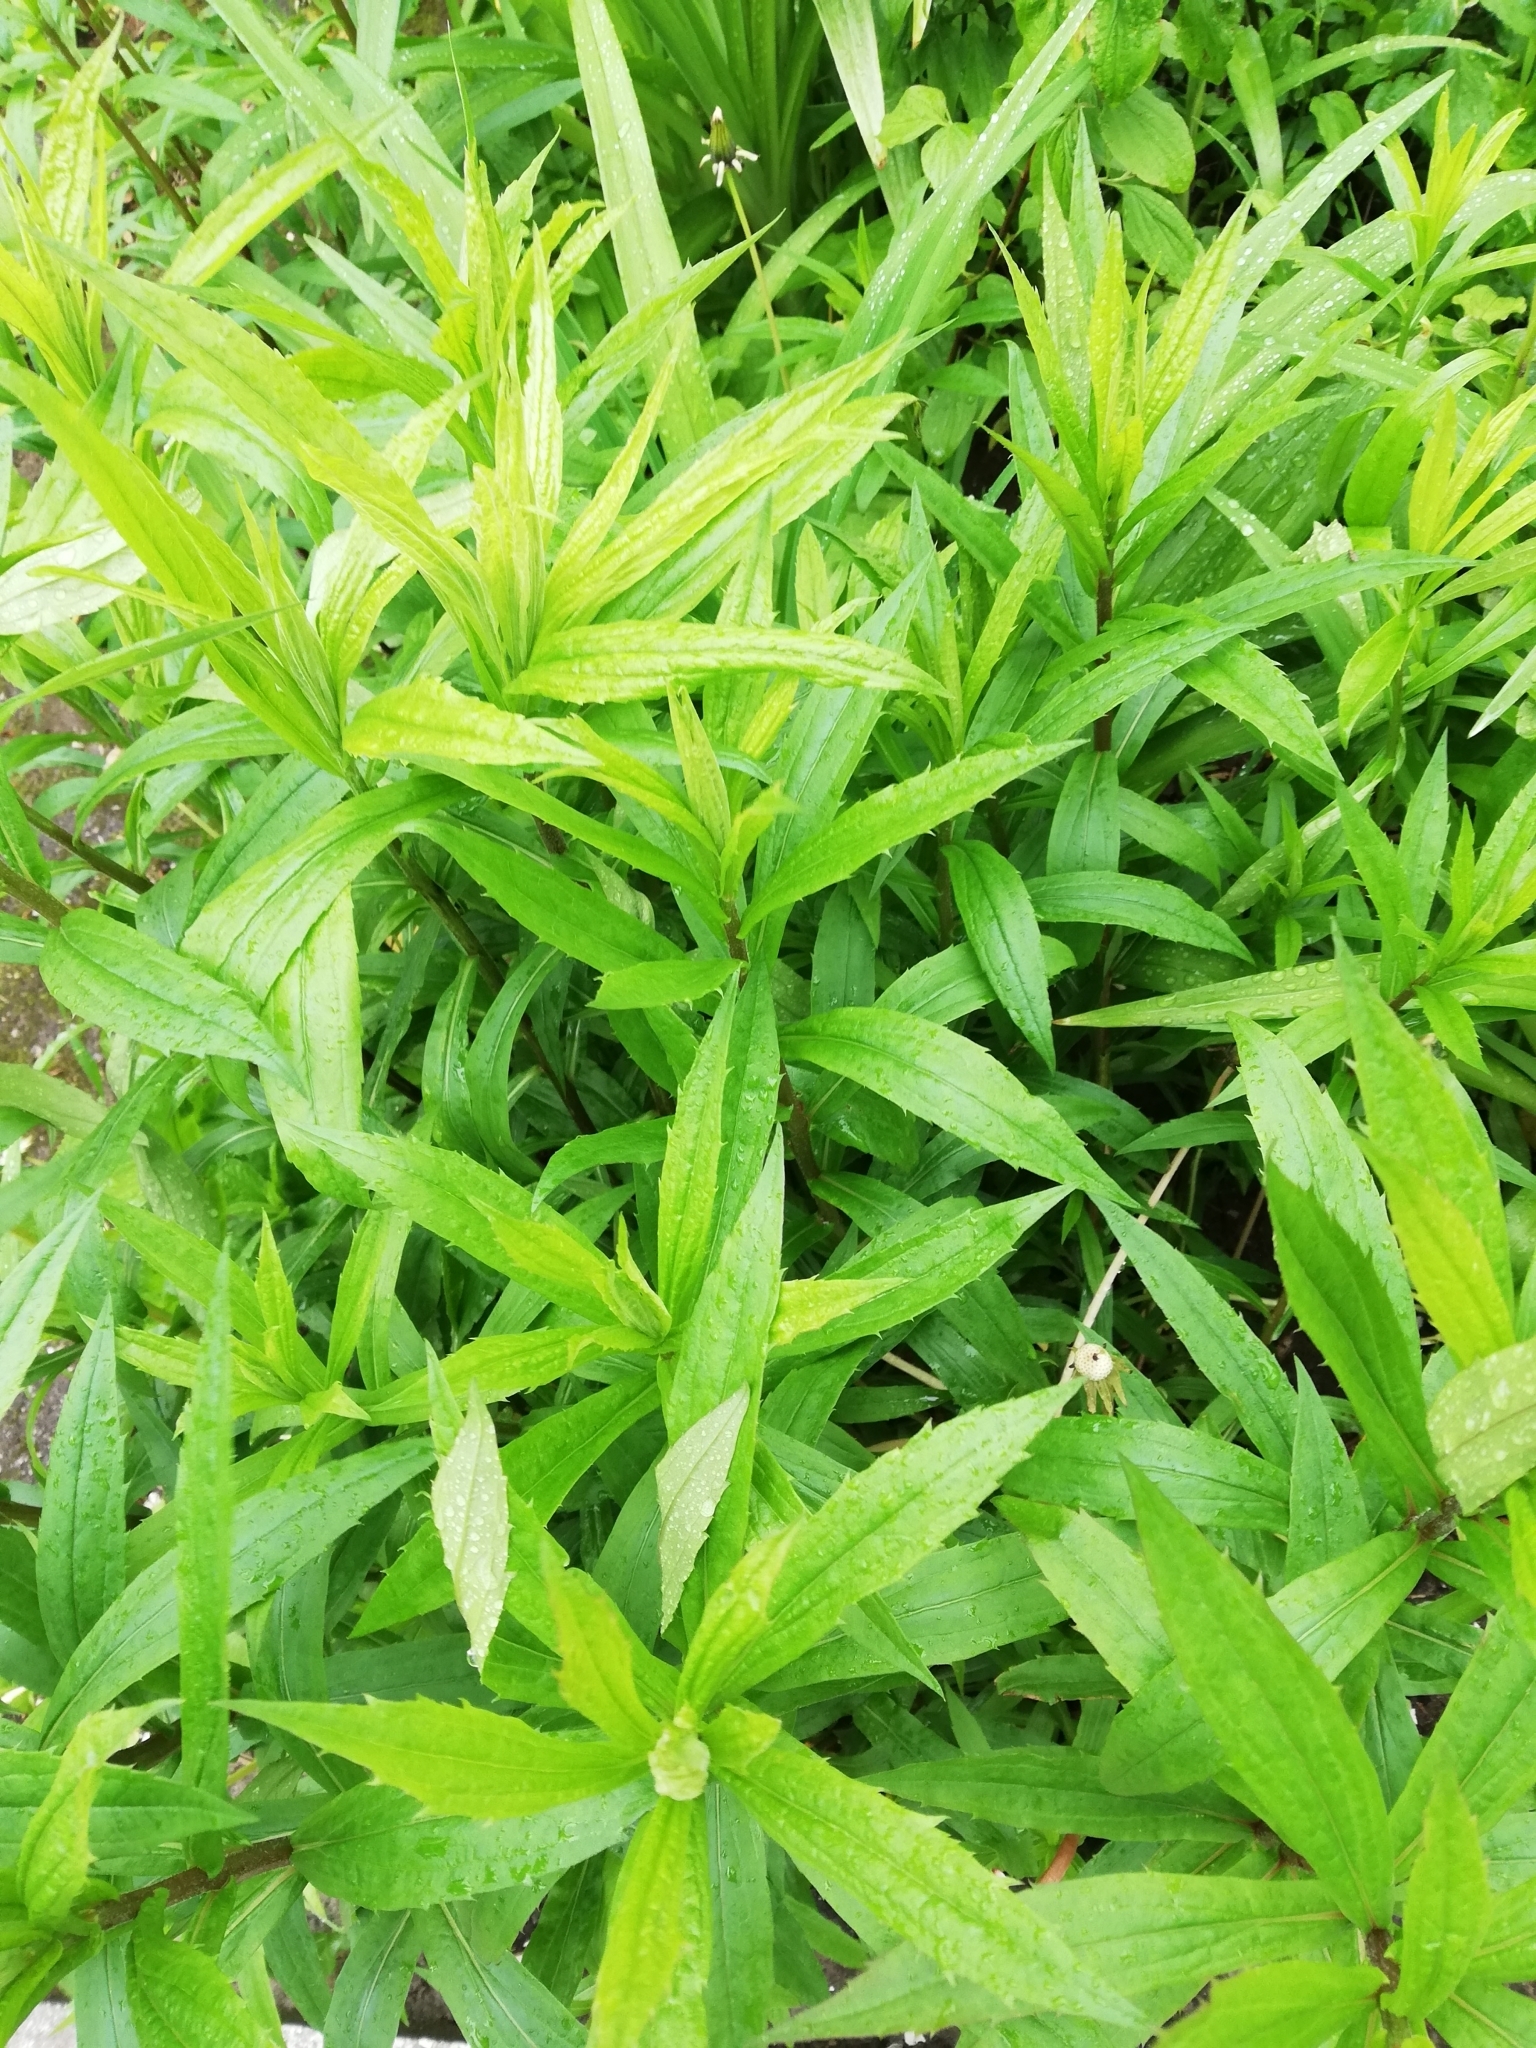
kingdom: Plantae
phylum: Tracheophyta
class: Magnoliopsida
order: Asterales
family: Asteraceae
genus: Solidago
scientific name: Solidago canadensis
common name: Canada goldenrod
